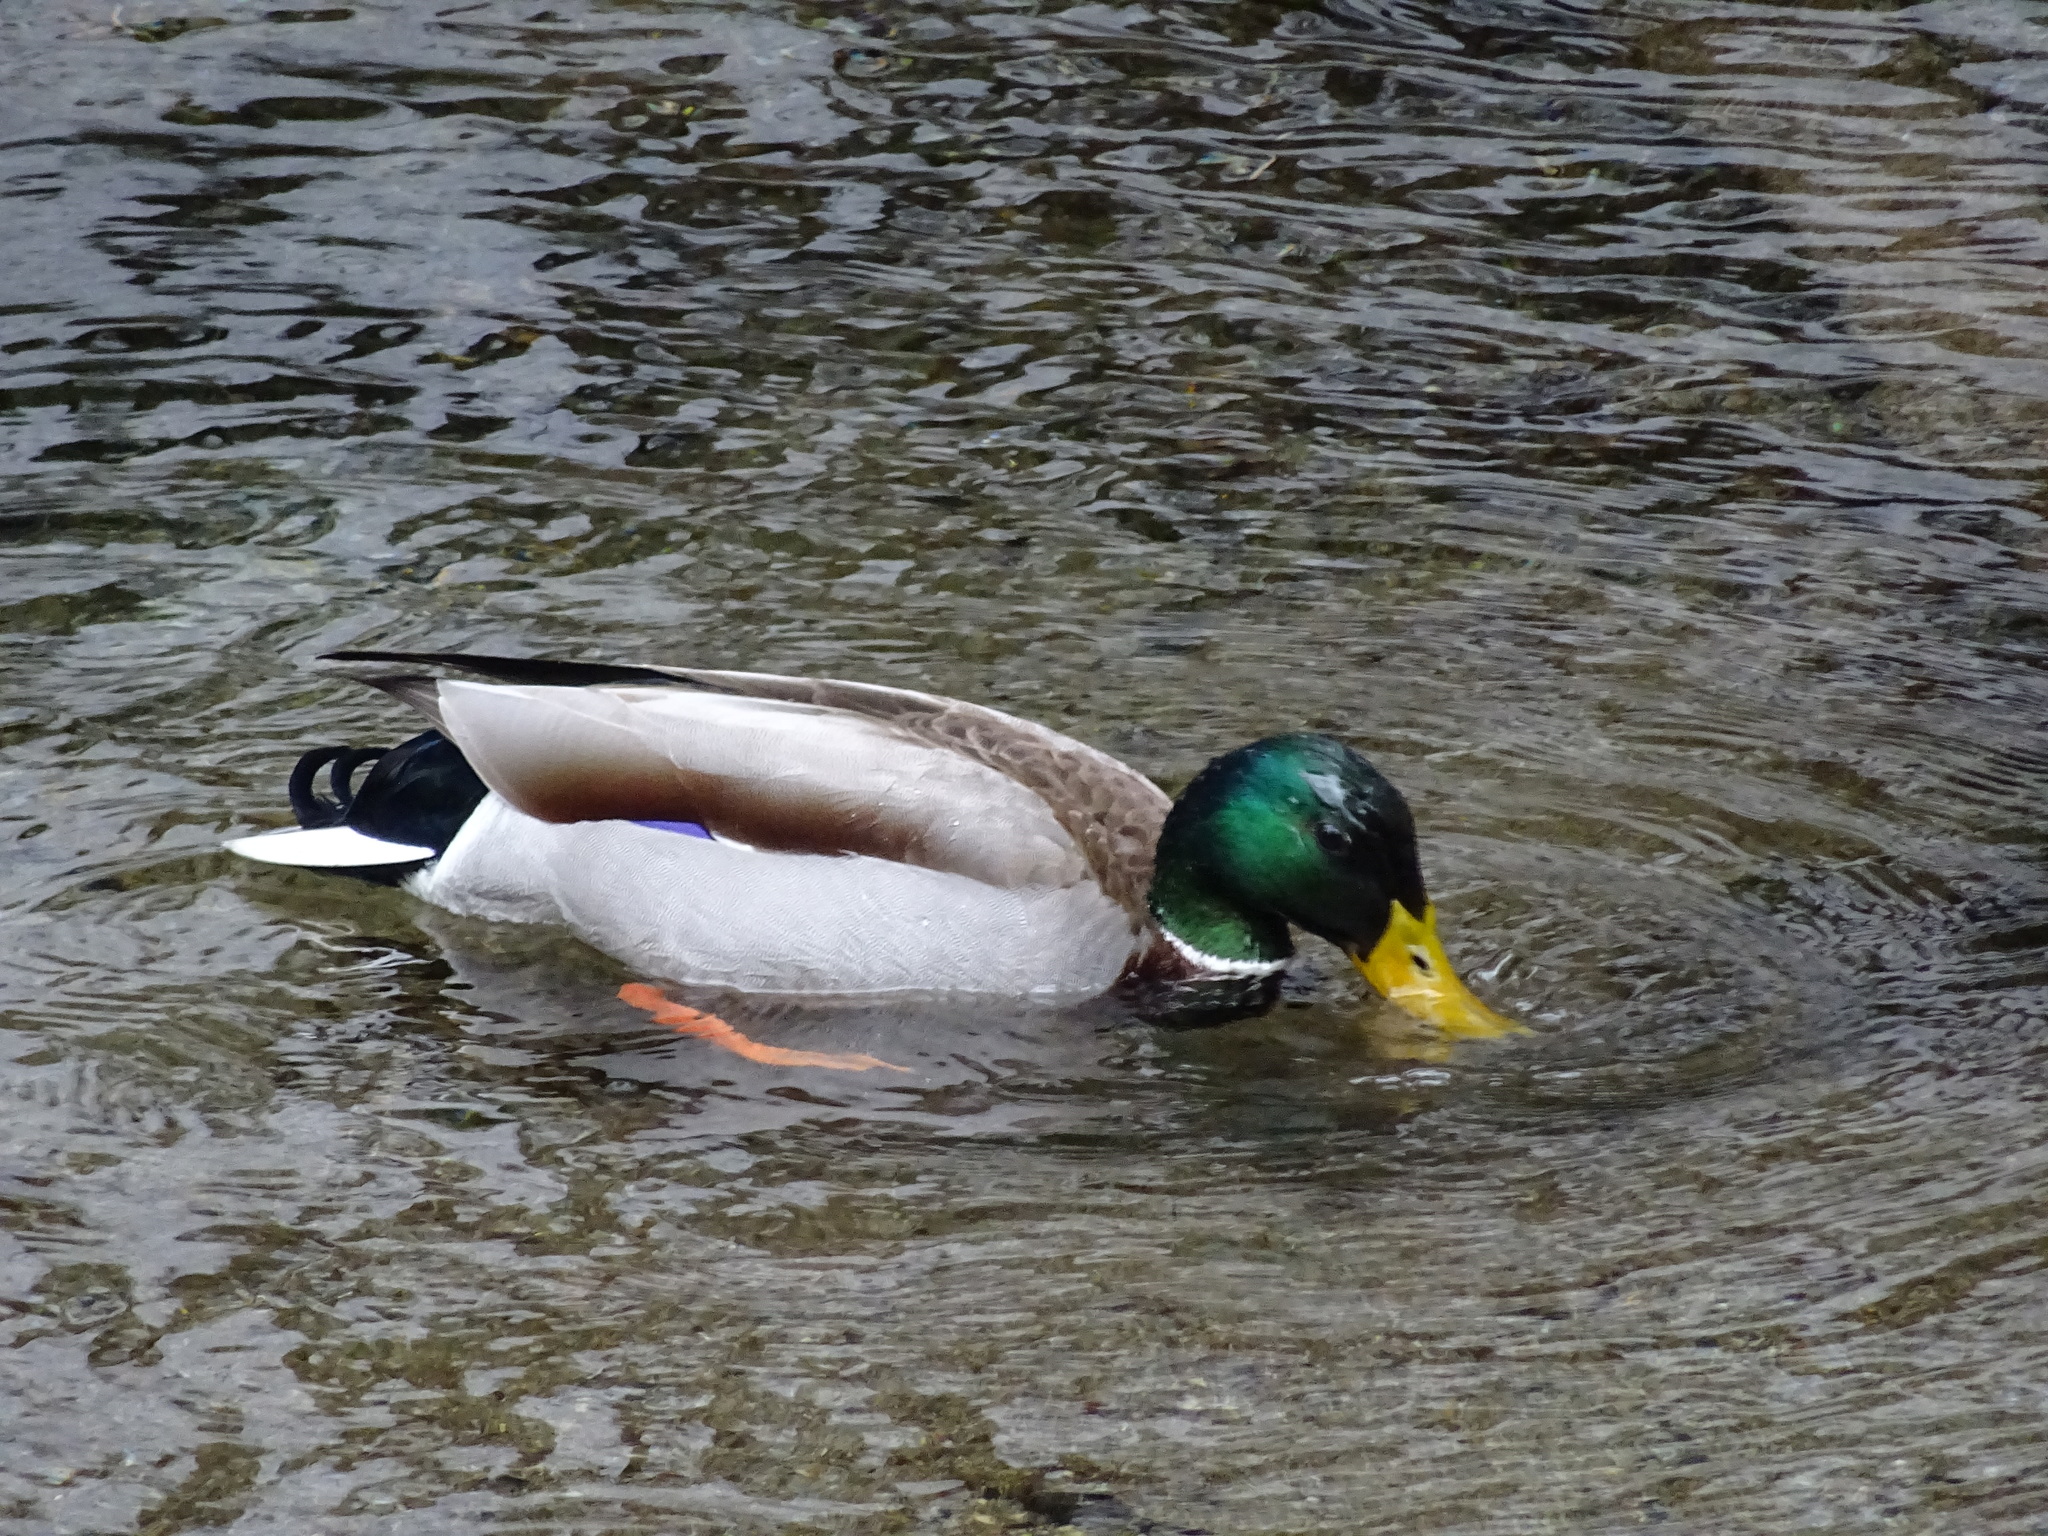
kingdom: Animalia
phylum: Chordata
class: Aves
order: Anseriformes
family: Anatidae
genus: Anas
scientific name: Anas platyrhynchos
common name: Mallard
